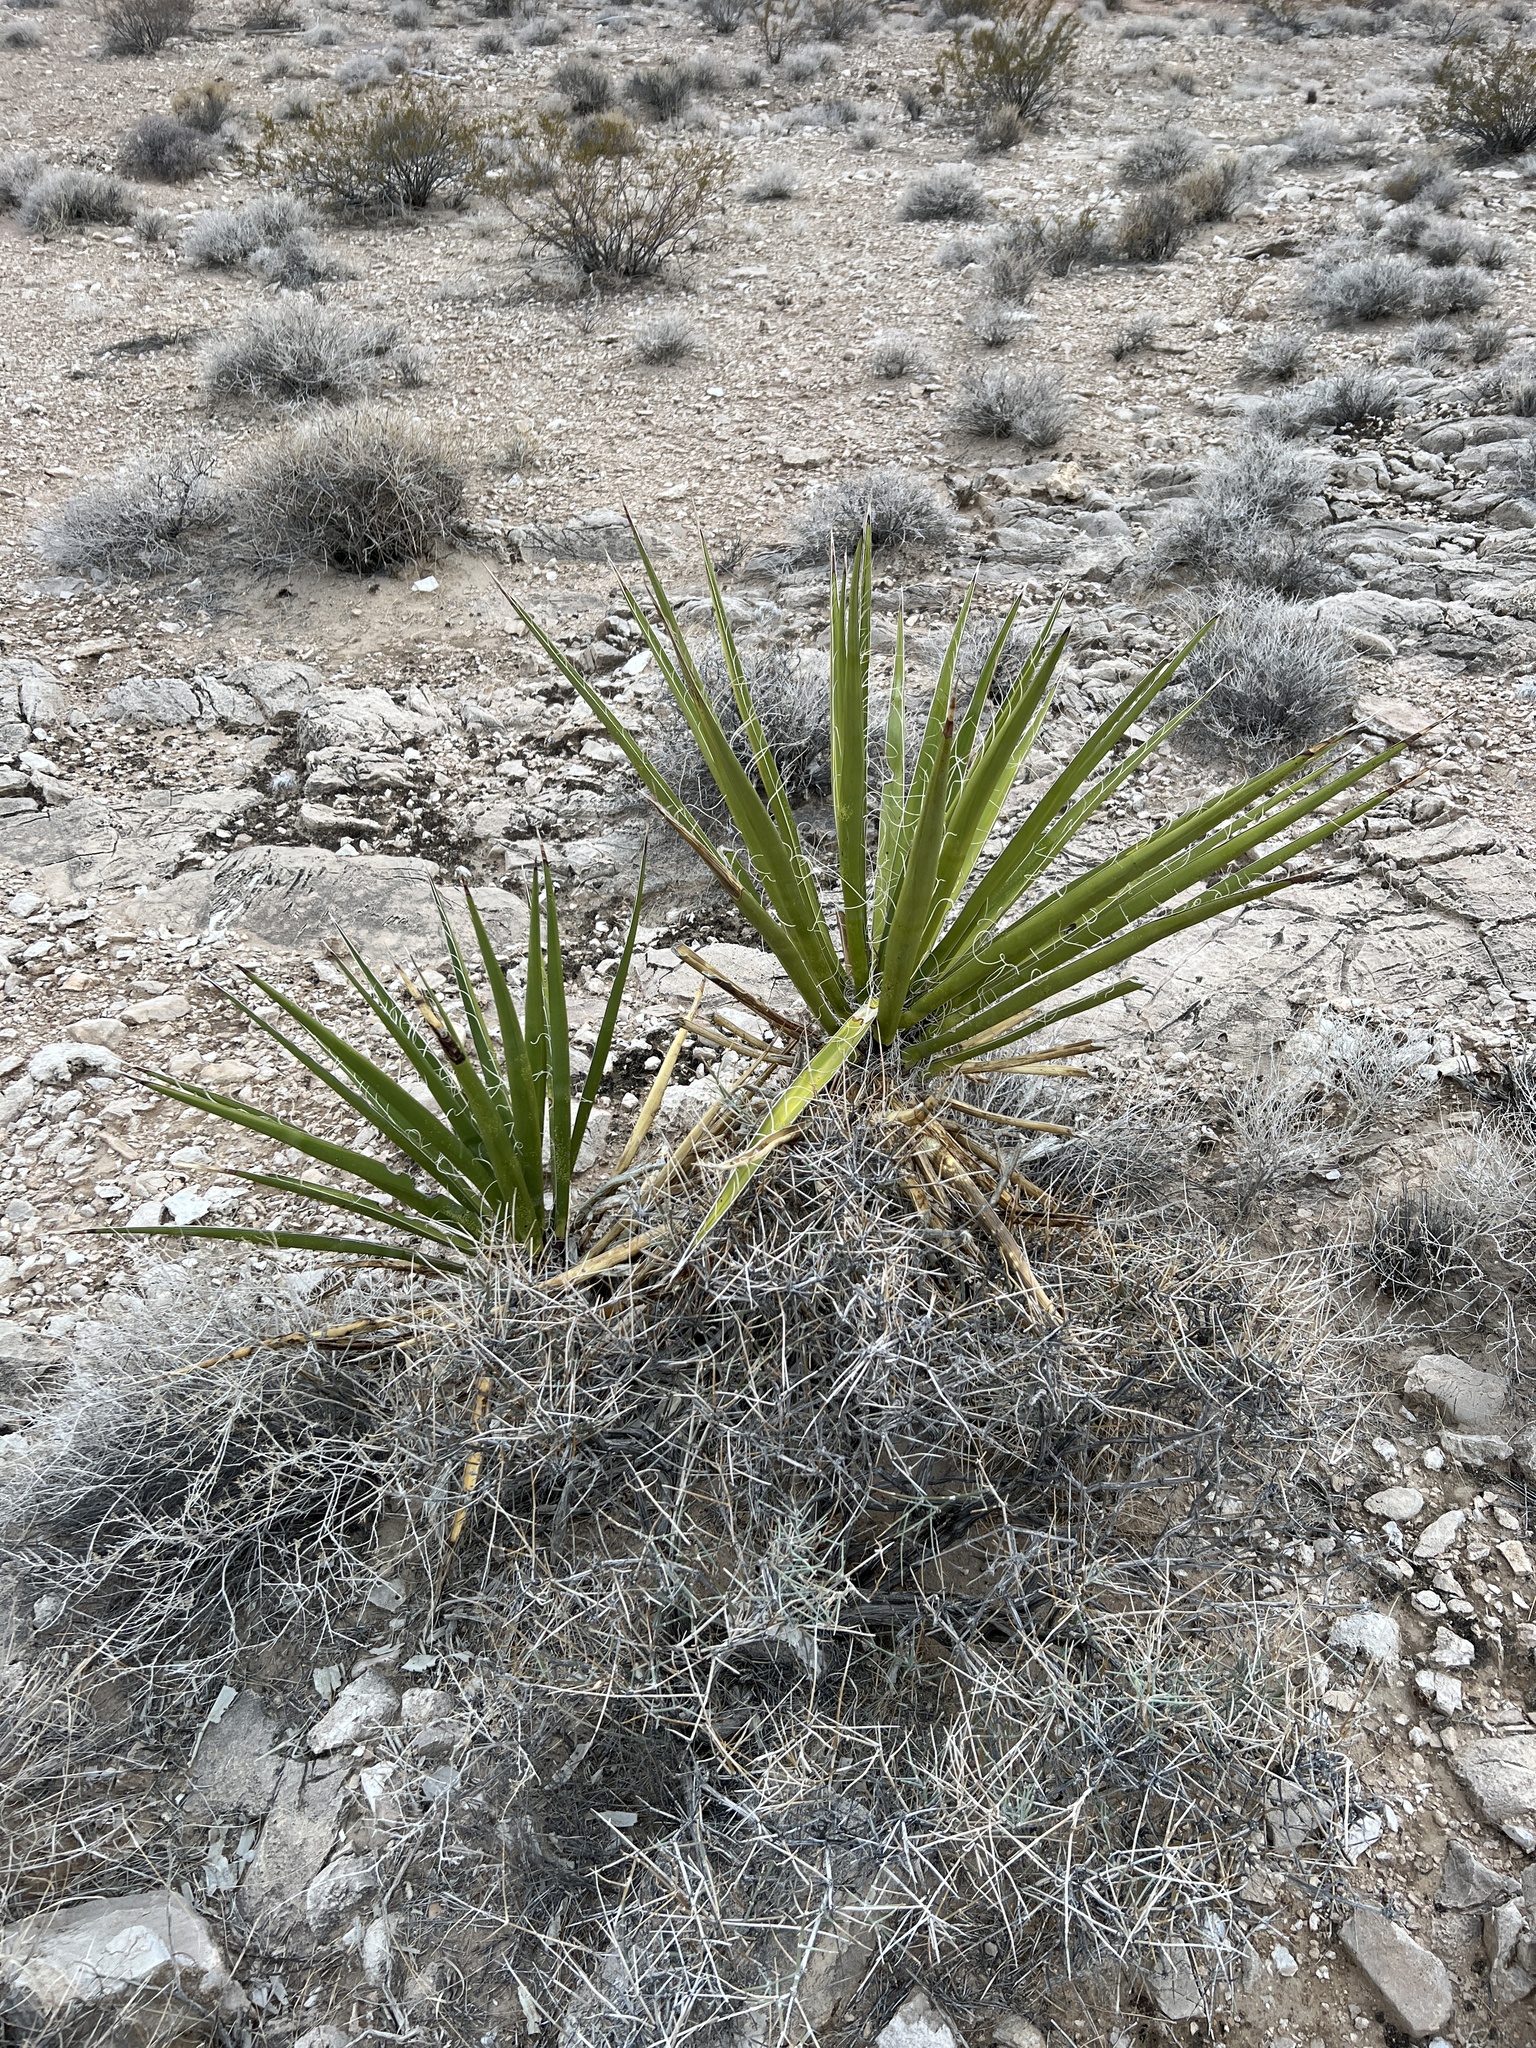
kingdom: Plantae
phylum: Tracheophyta
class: Liliopsida
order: Asparagales
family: Asparagaceae
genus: Yucca
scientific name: Yucca schidigera
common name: Mojave yucca
